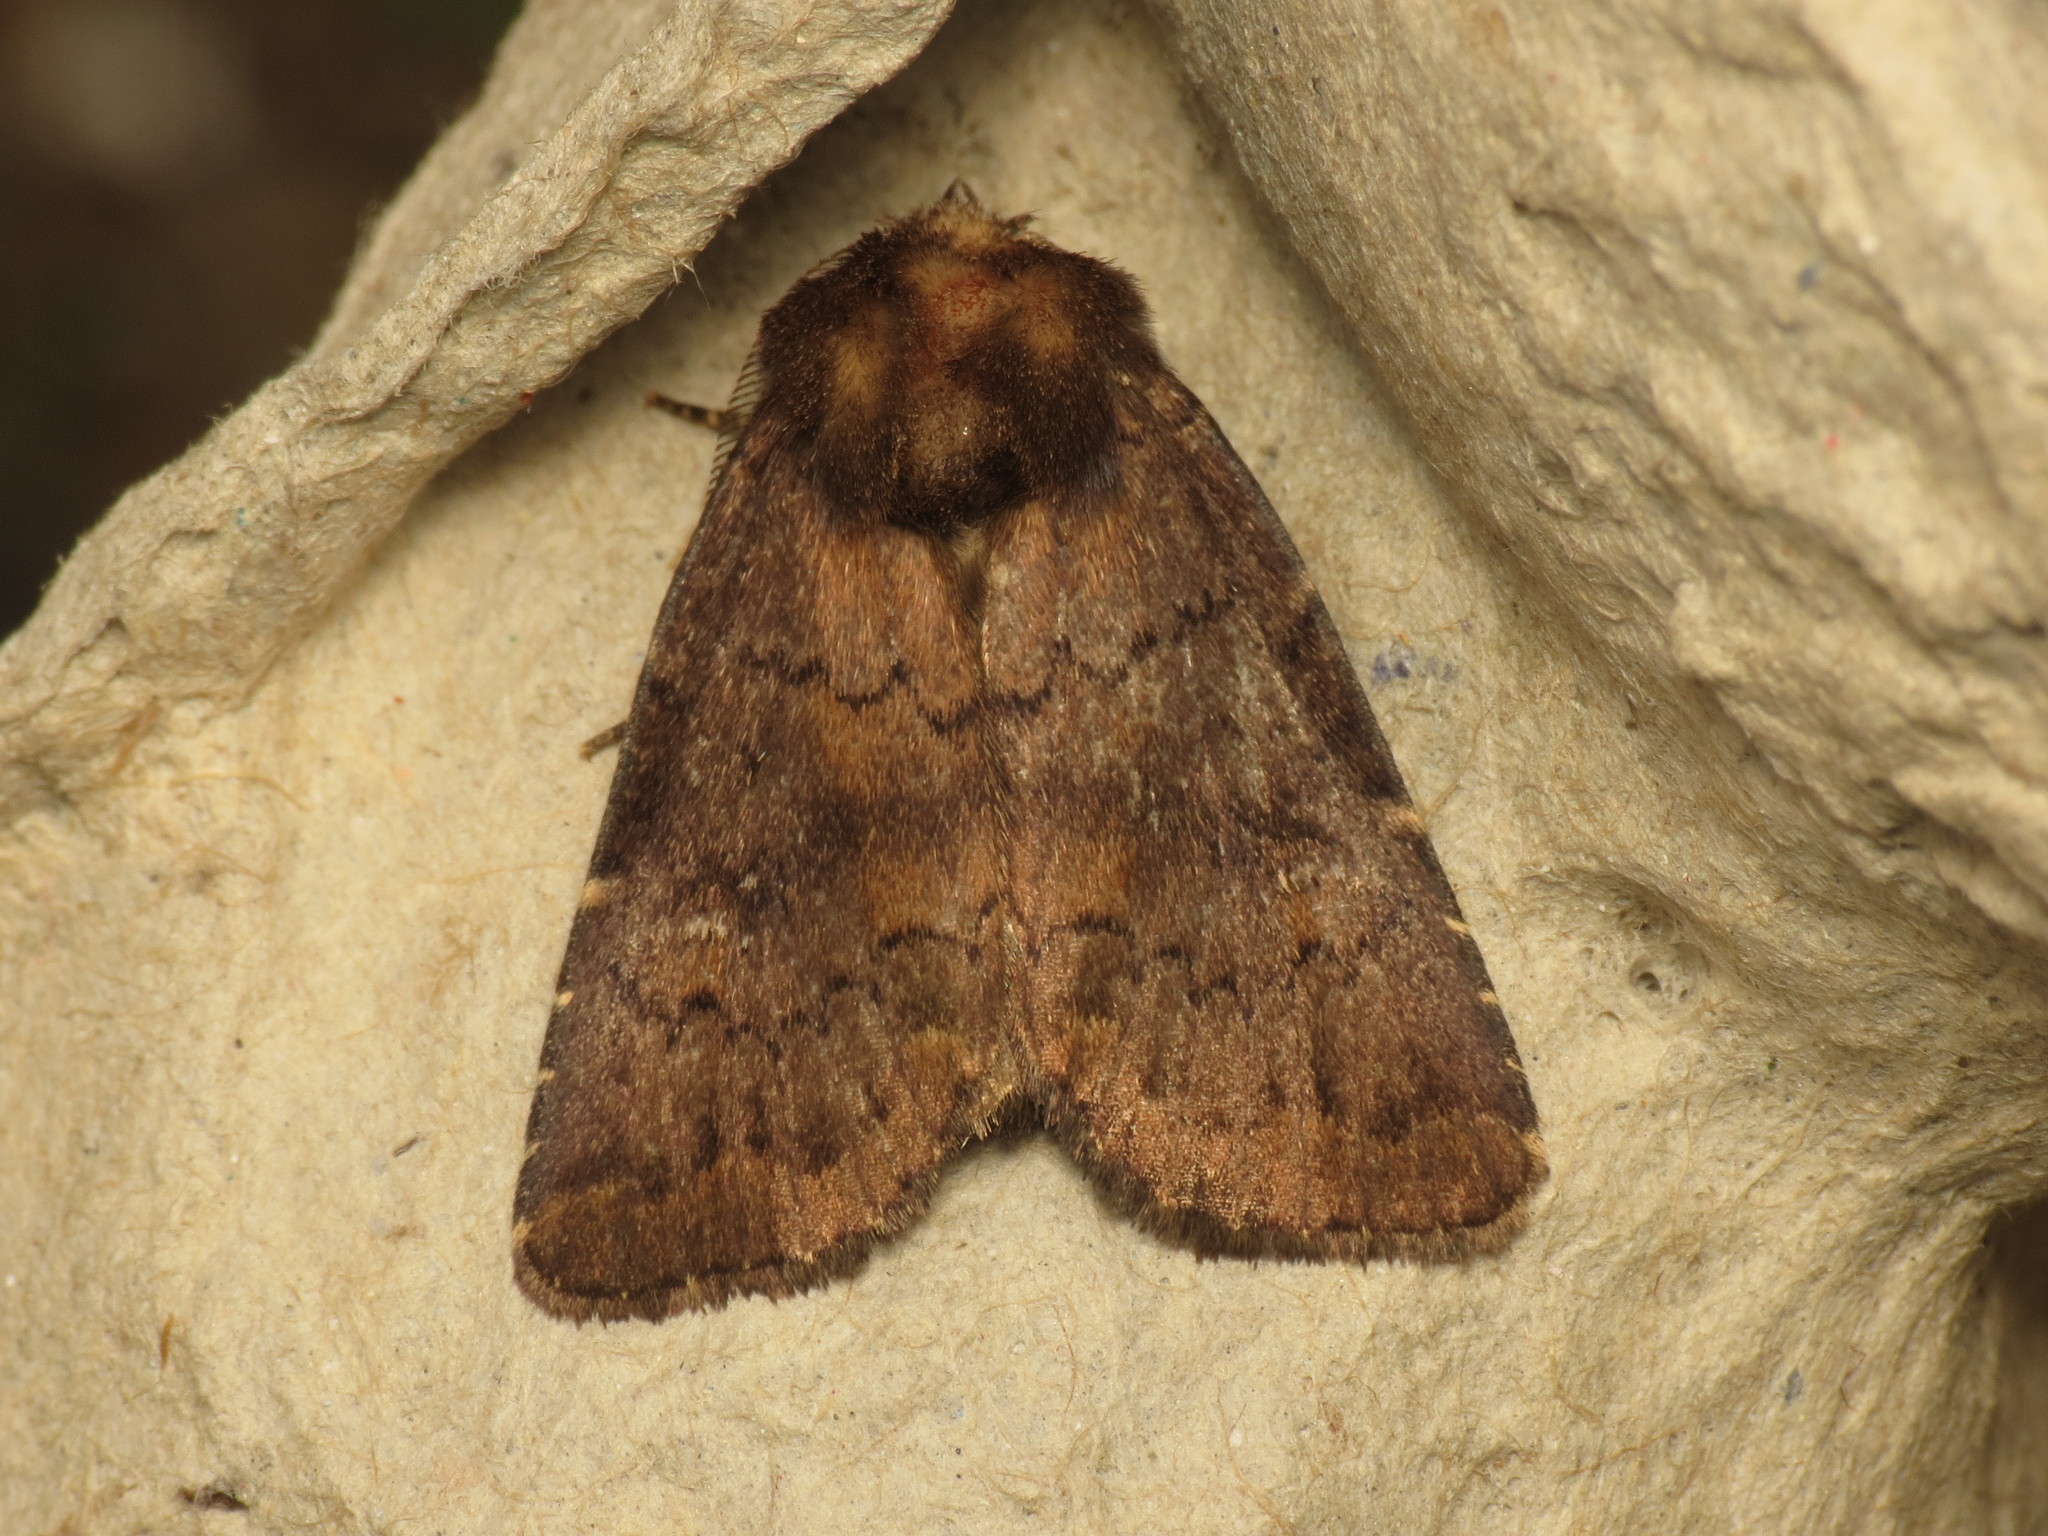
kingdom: Animalia
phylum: Arthropoda
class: Insecta
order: Lepidoptera
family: Noctuidae
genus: Charanyca
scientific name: Charanyca ferruginea
